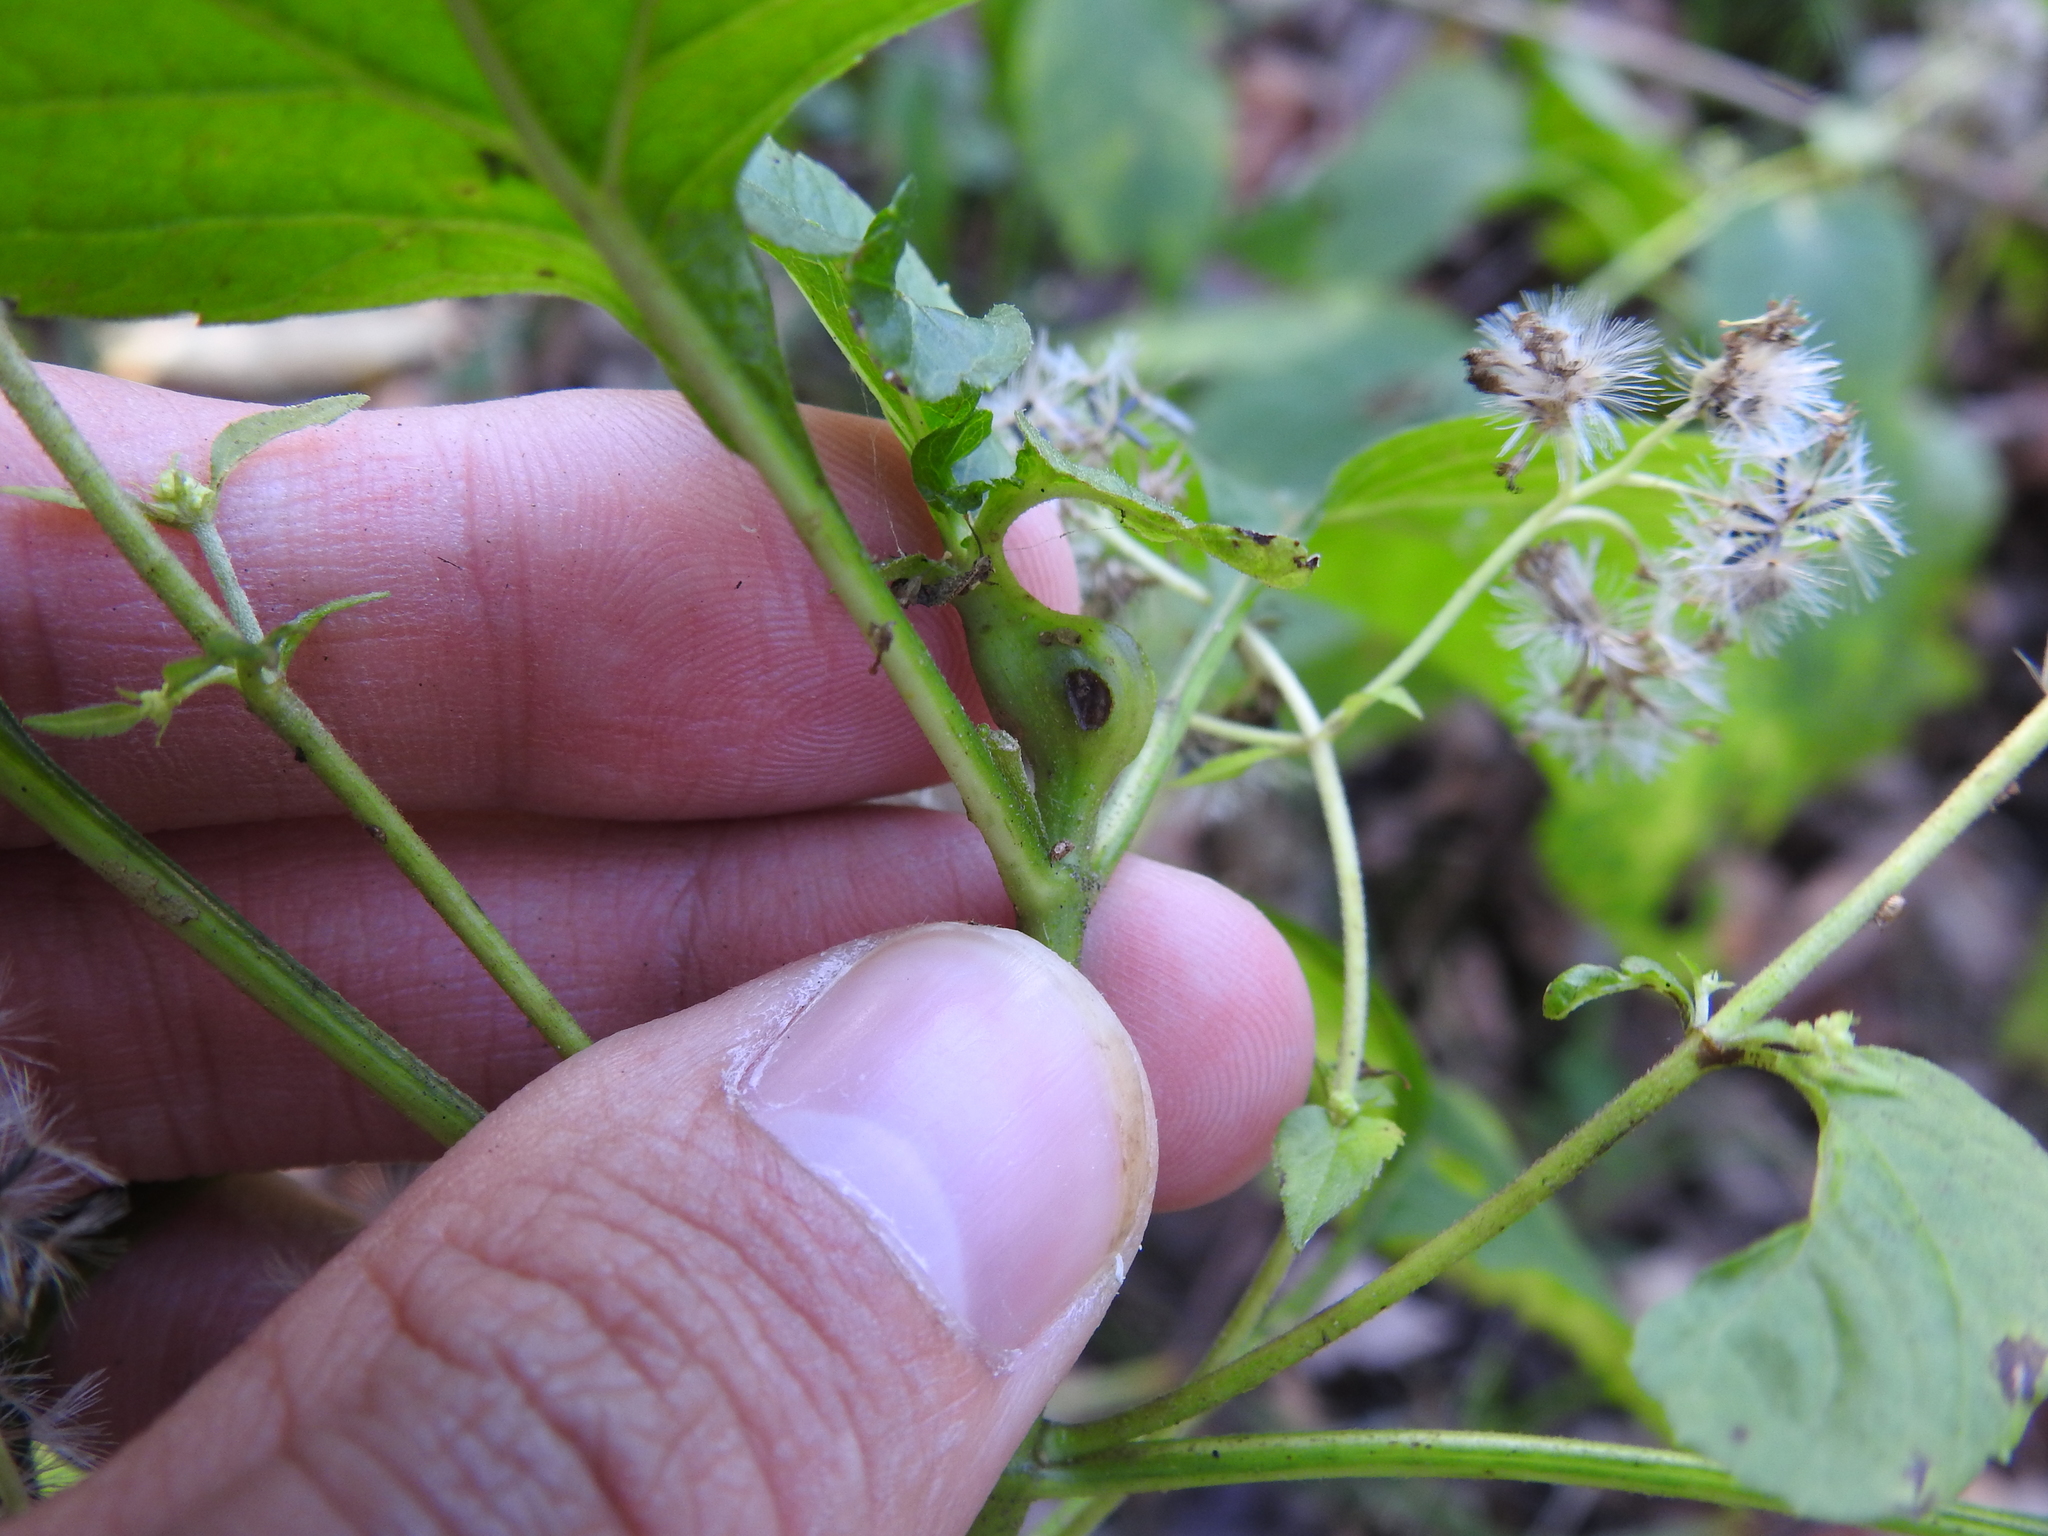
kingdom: Animalia
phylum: Arthropoda
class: Insecta
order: Diptera
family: Cecidomyiidae
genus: Asphondylia
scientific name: Asphondylia eupatorii
